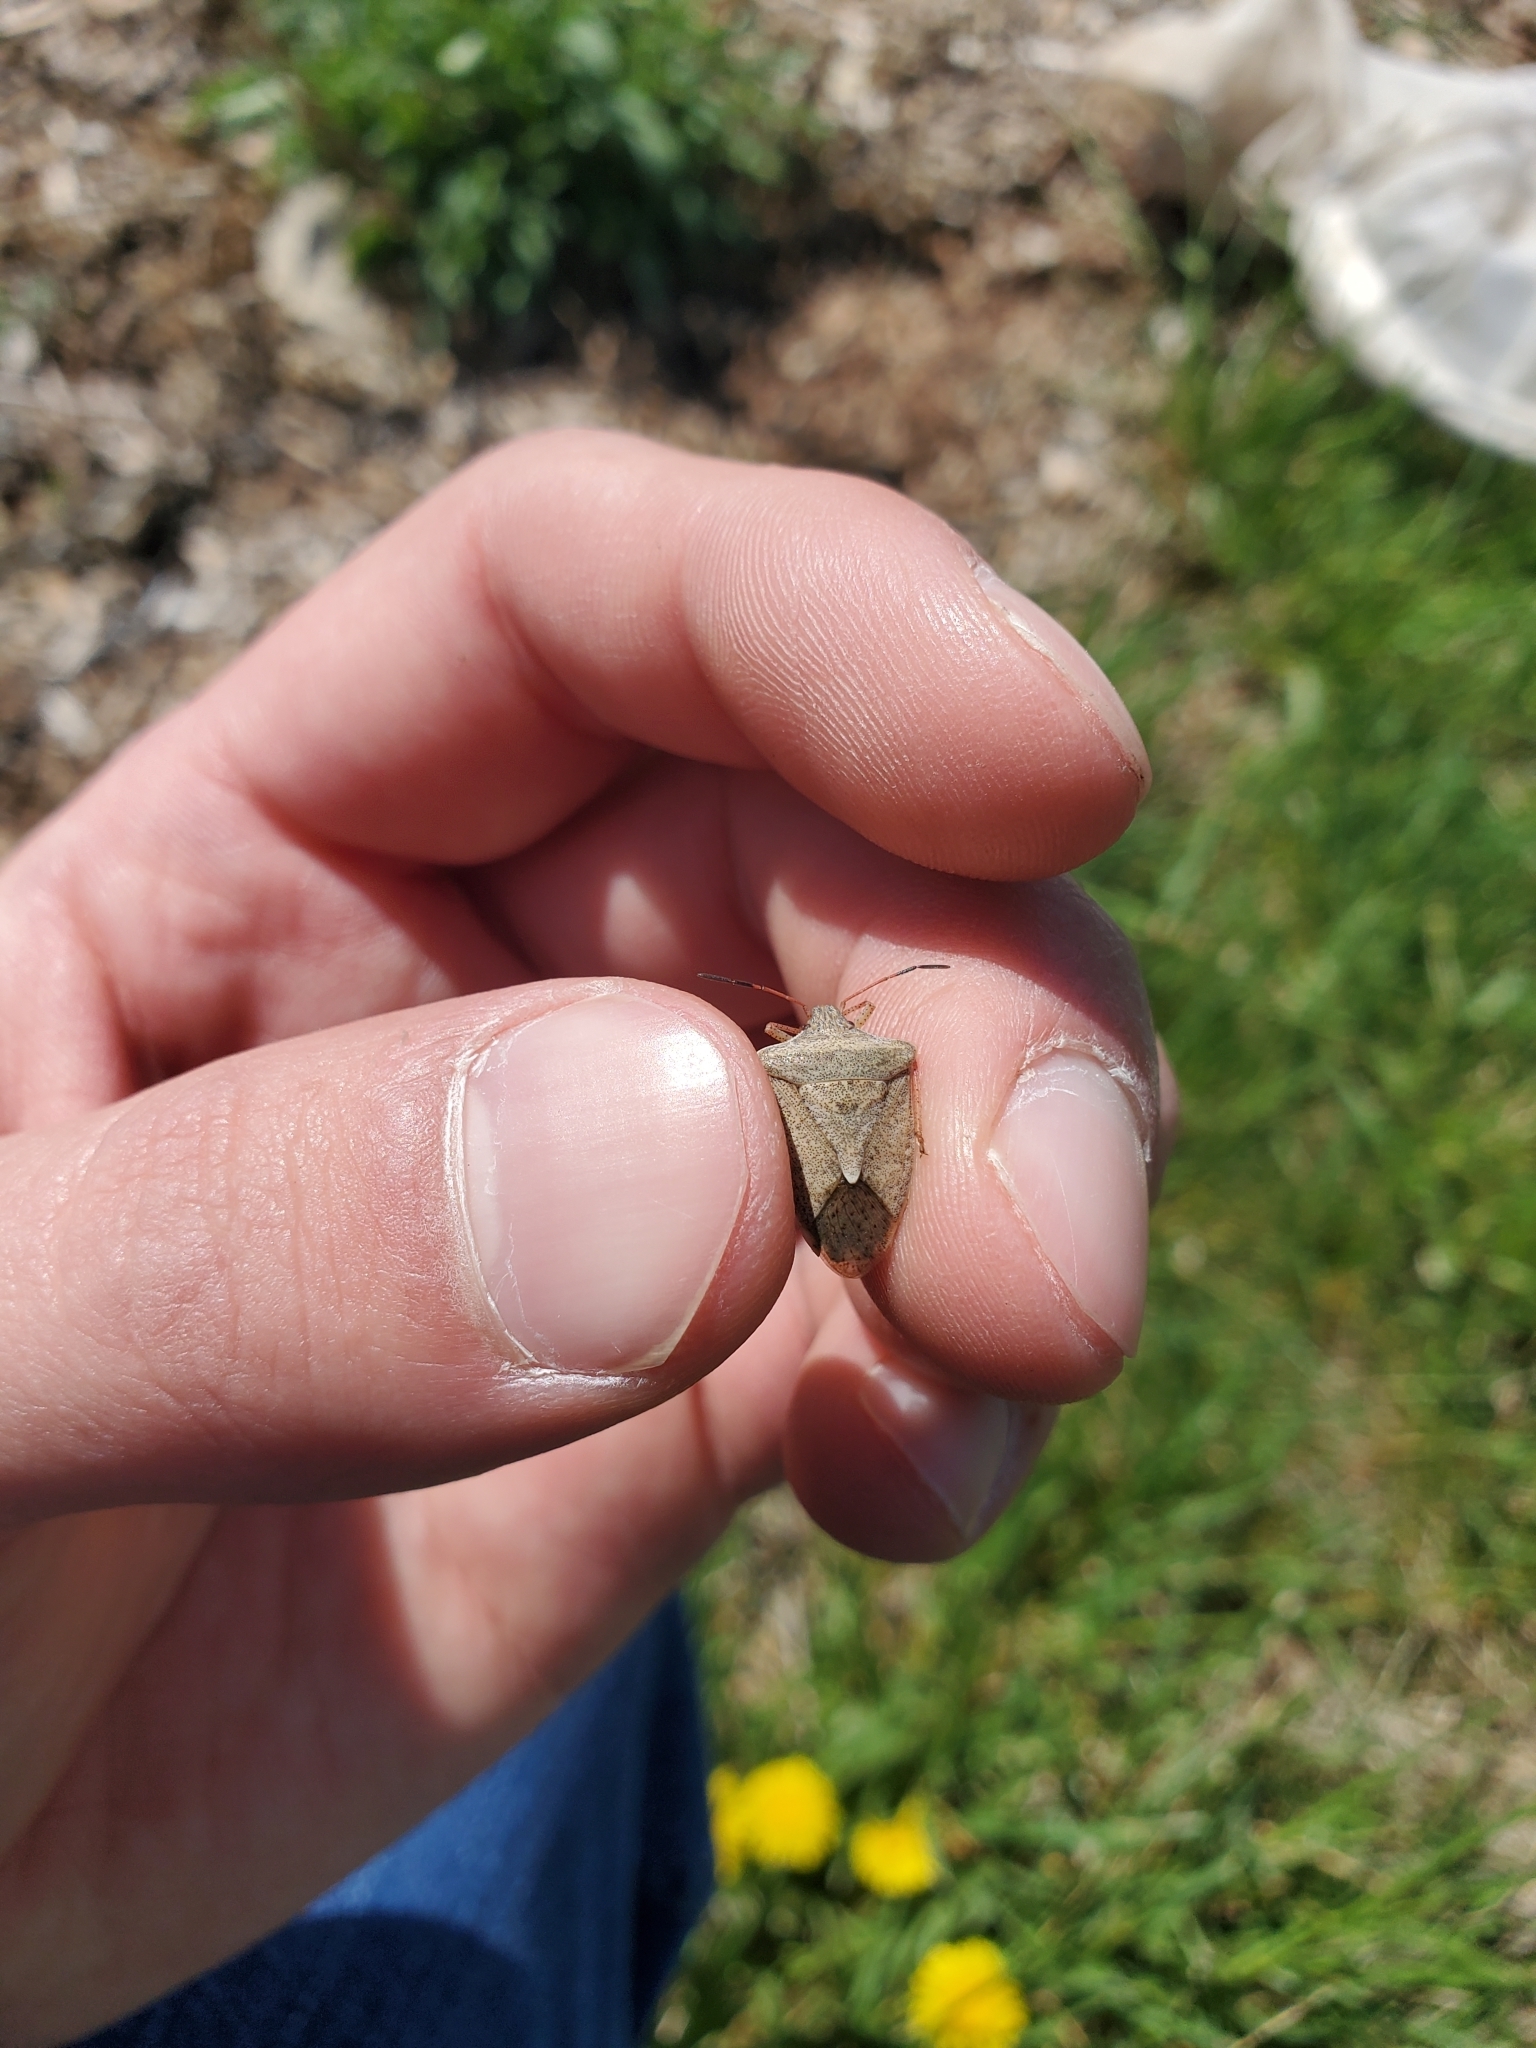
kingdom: Animalia
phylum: Arthropoda
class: Insecta
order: Hemiptera
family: Pentatomidae
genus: Euschistus
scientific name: Euschistus variolarius
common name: Onespotted stink bug
